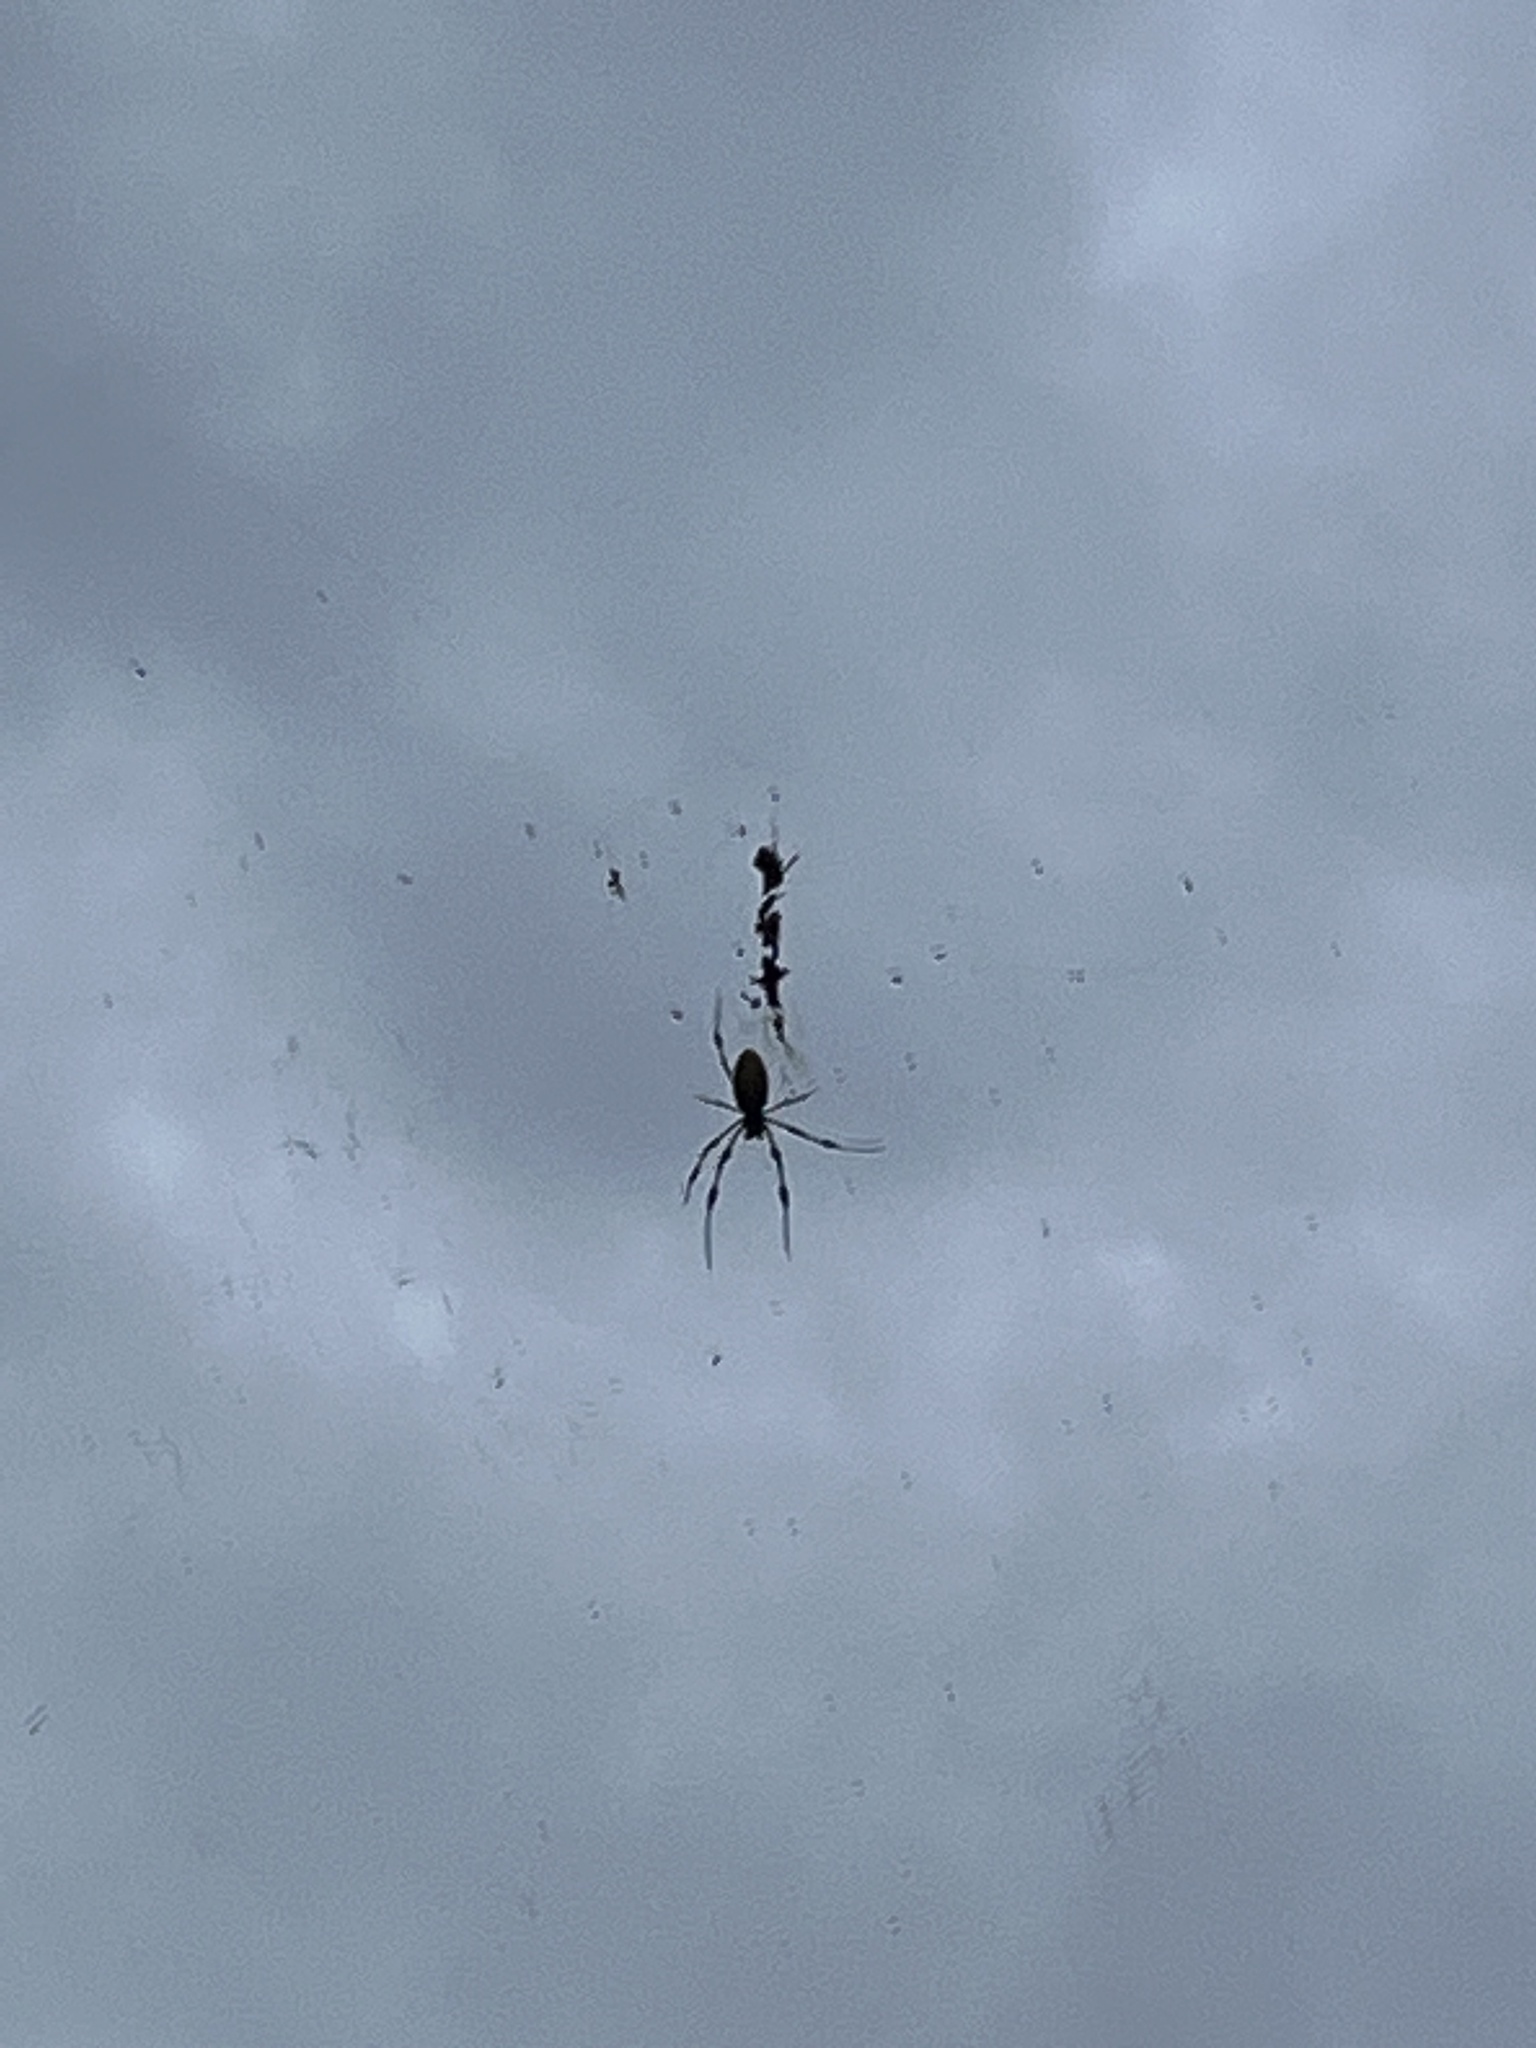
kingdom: Animalia
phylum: Arthropoda
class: Arachnida
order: Araneae
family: Araneidae
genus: Trichonephila
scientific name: Trichonephila clavipes
